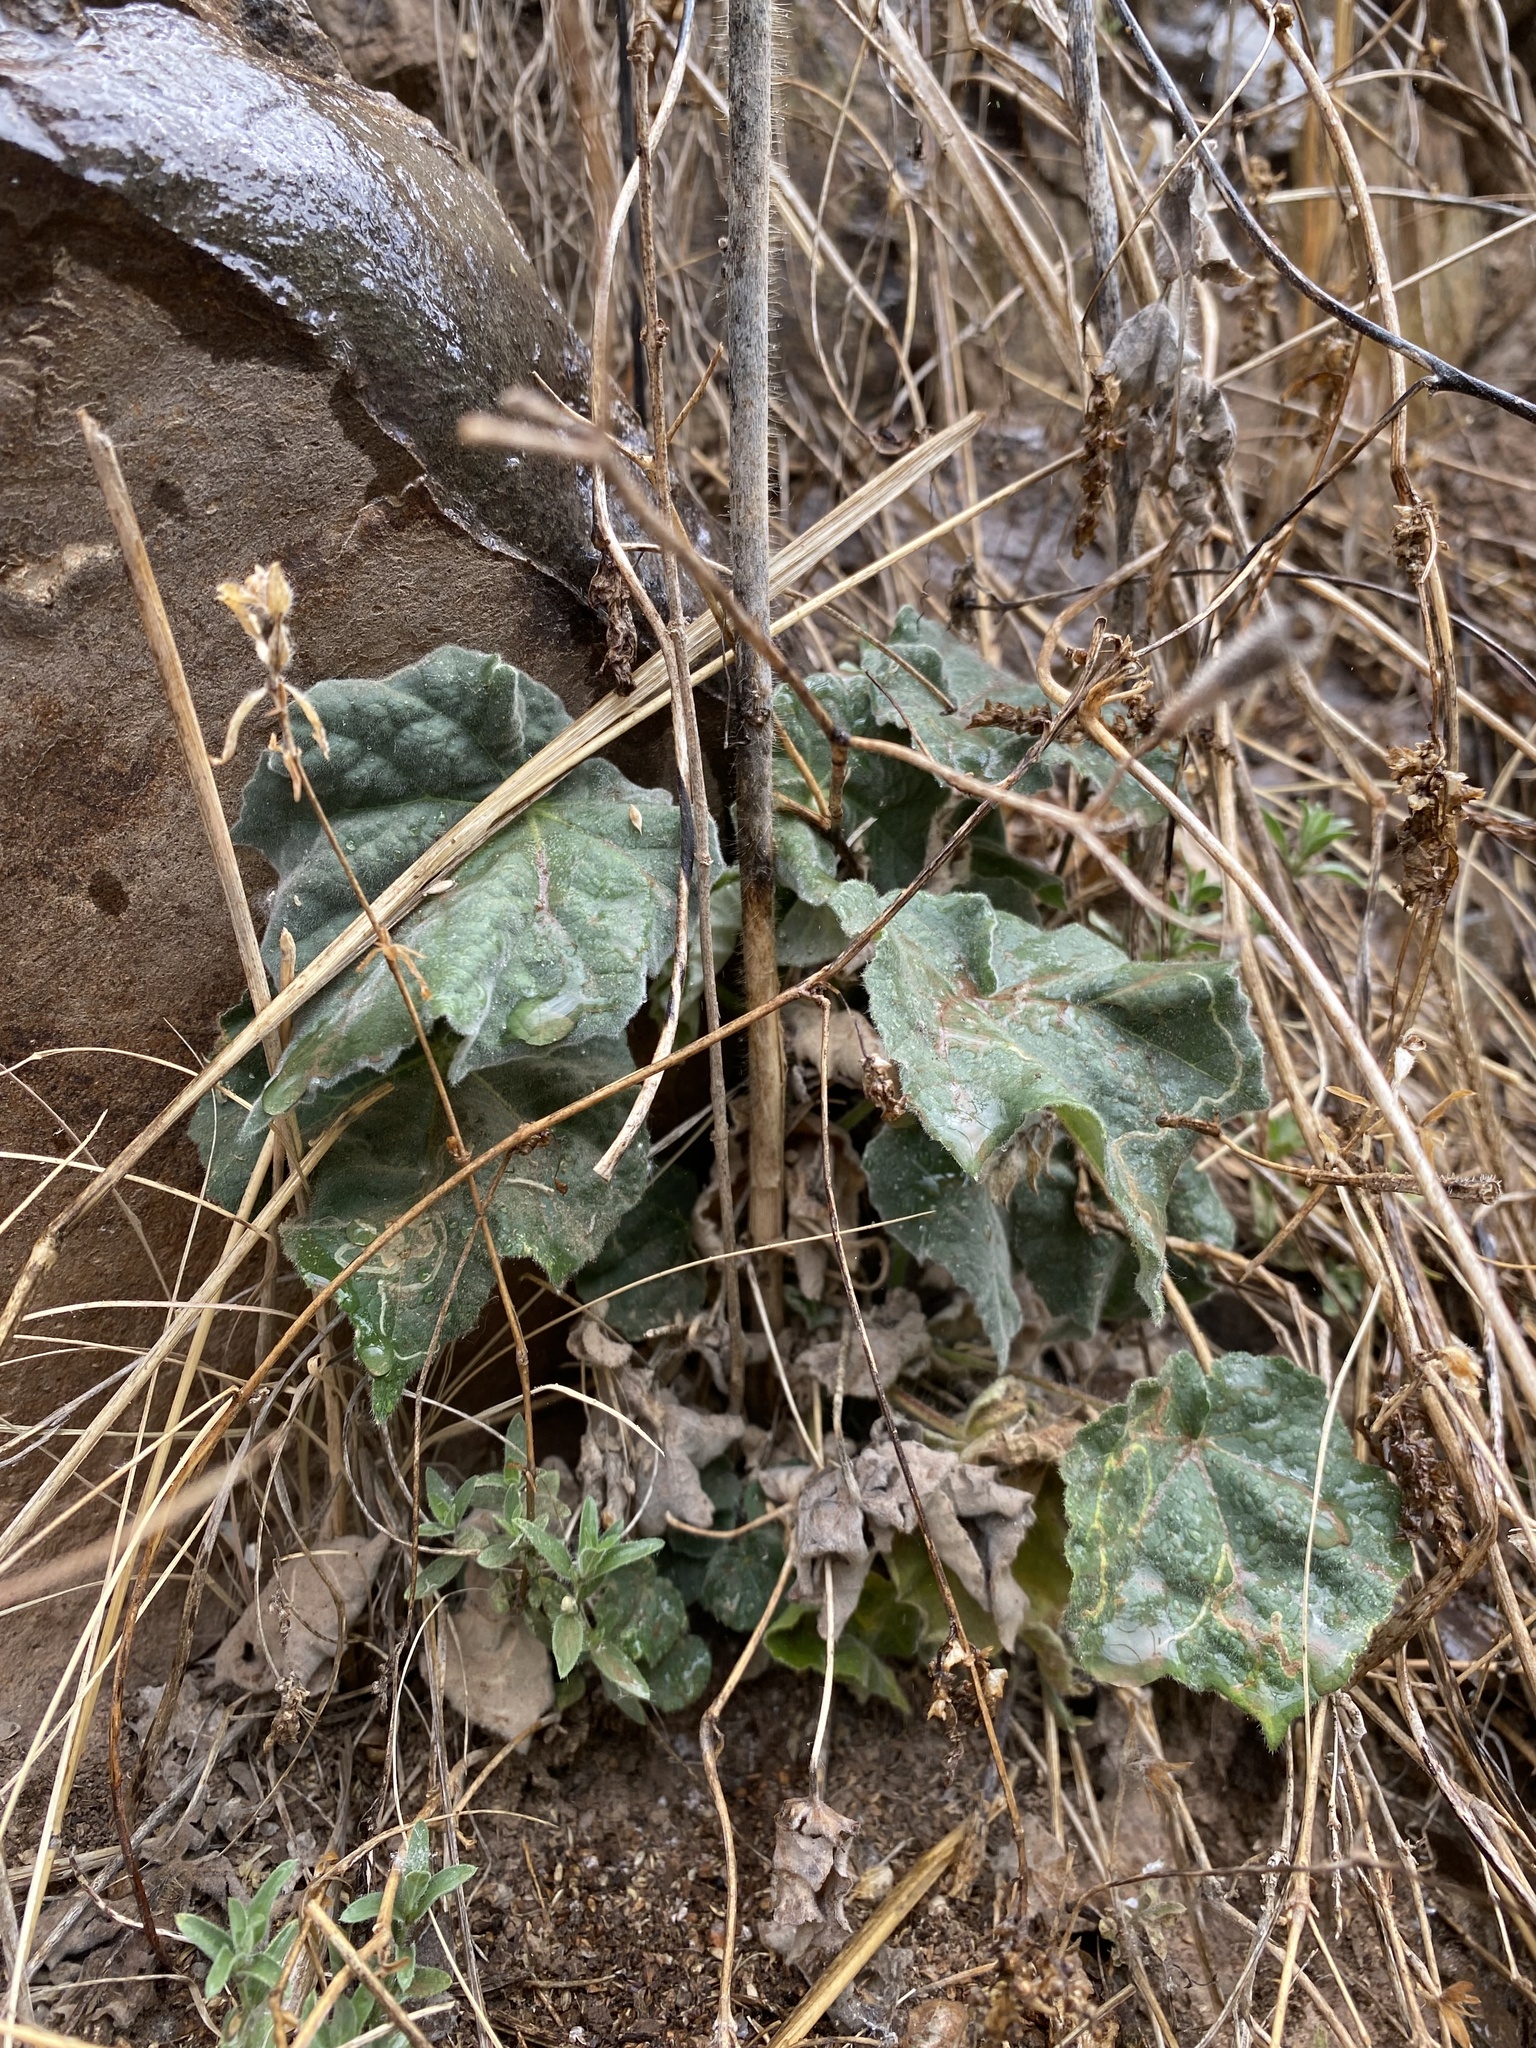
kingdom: Plantae
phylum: Tracheophyta
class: Magnoliopsida
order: Malvales
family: Malvaceae
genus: Abutilon
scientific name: Abutilon mollicomum
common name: Sonoran indian-mallow
